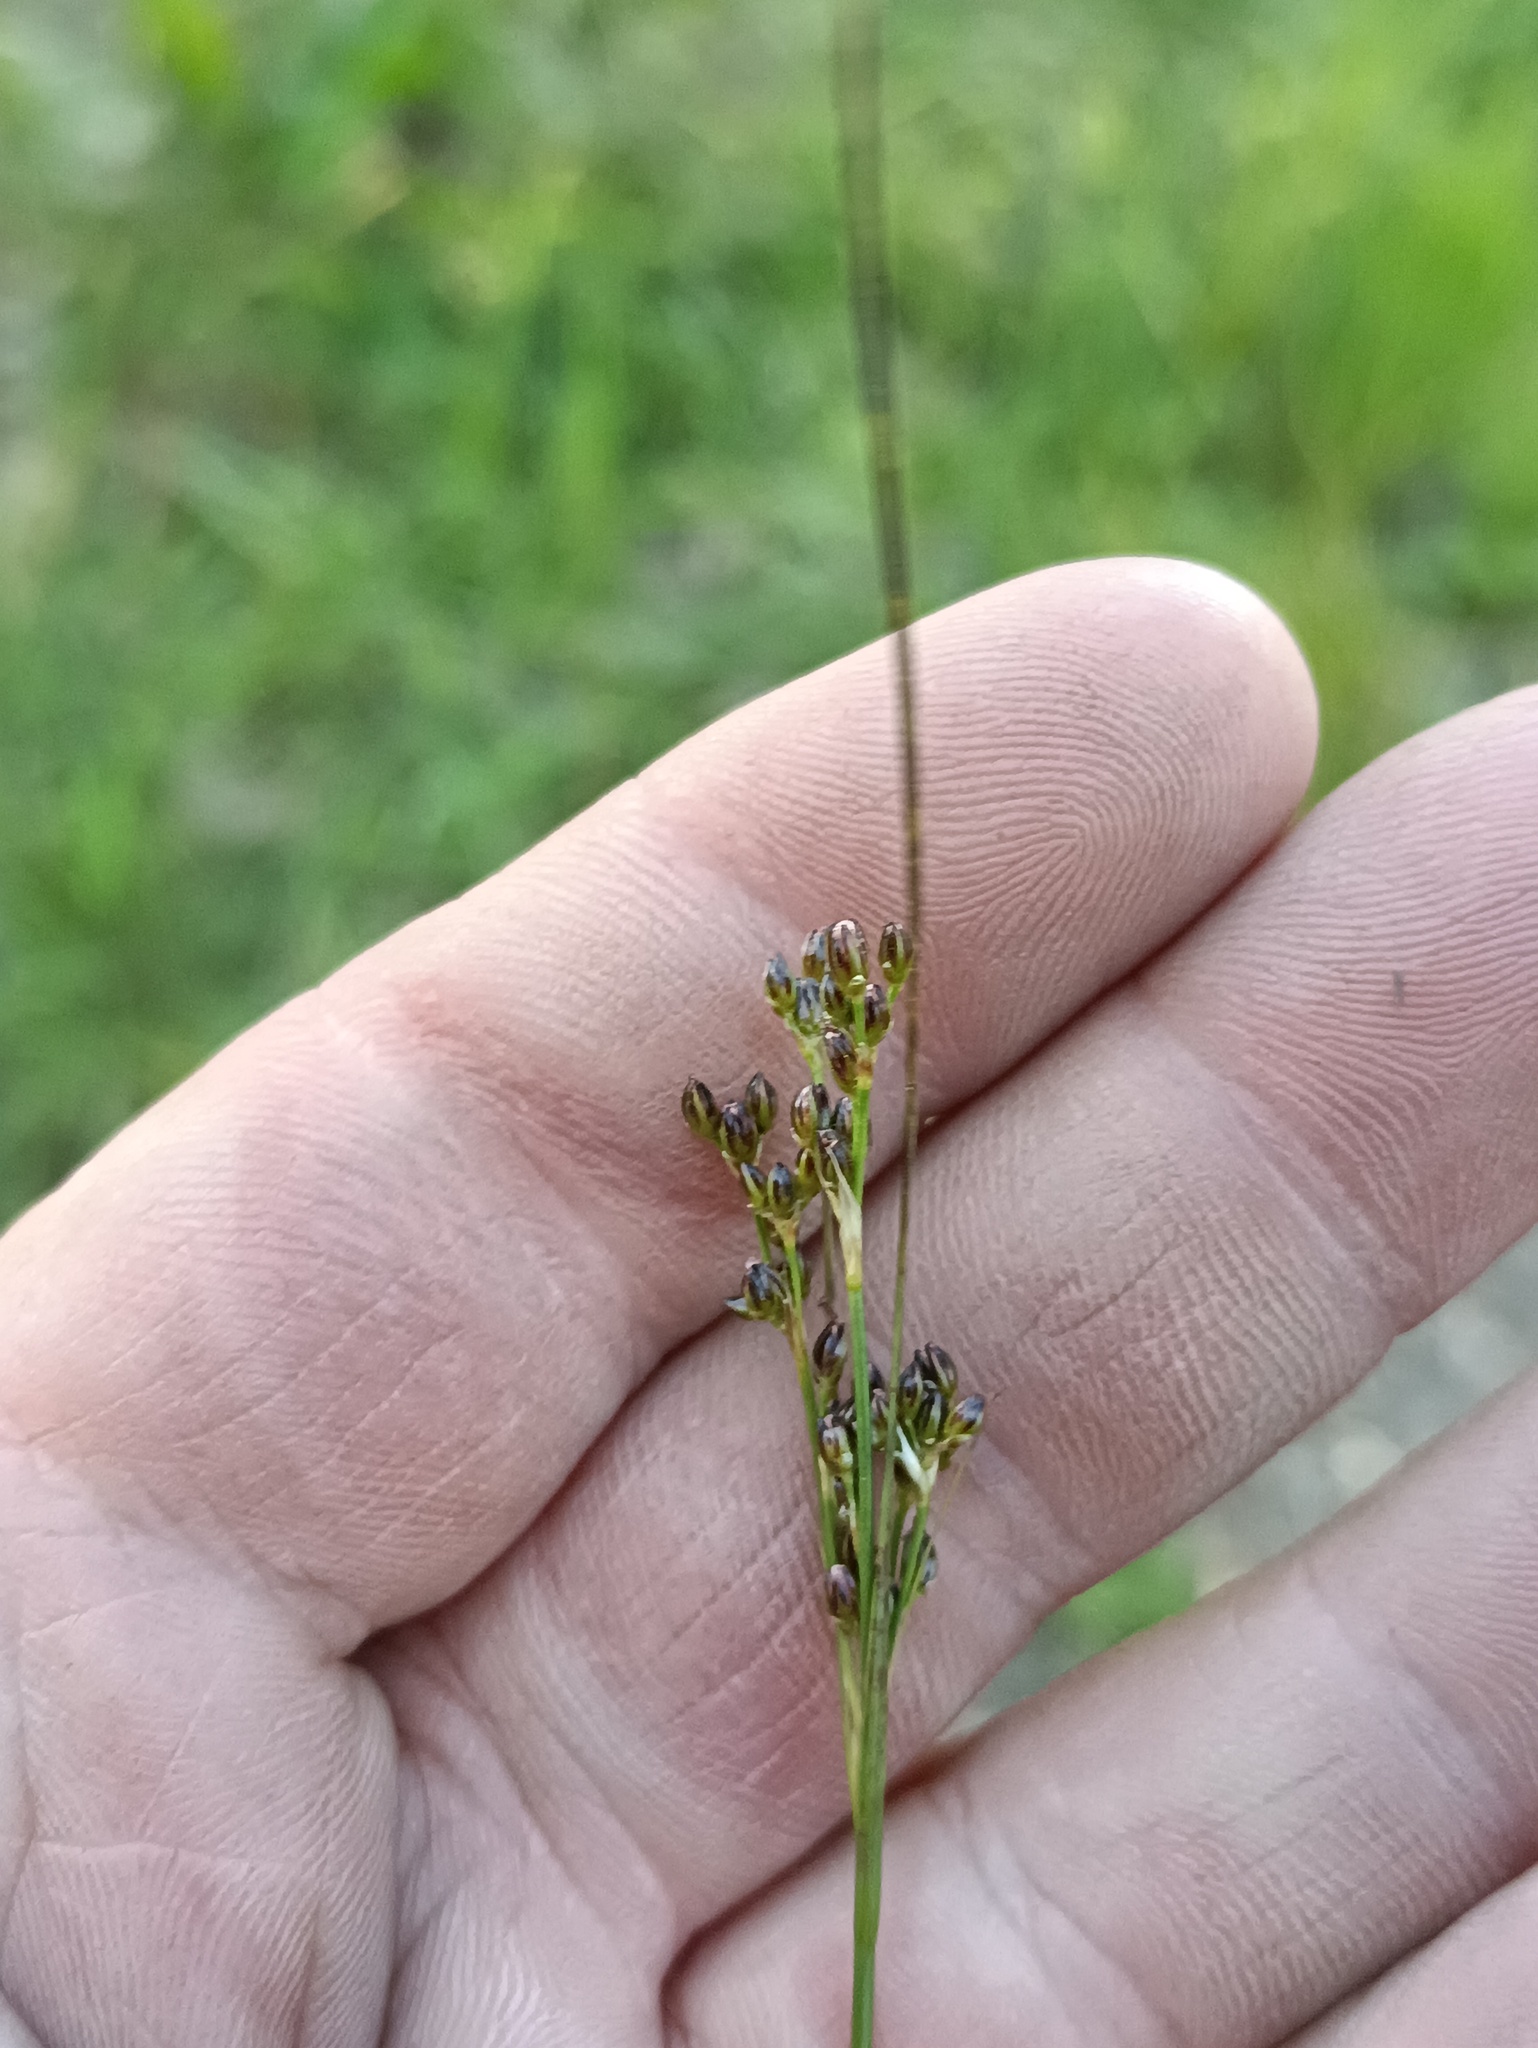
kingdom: Plantae
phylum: Tracheophyta
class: Liliopsida
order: Poales
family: Juncaceae
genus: Juncus
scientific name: Juncus compressus
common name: Round-fruited rush
